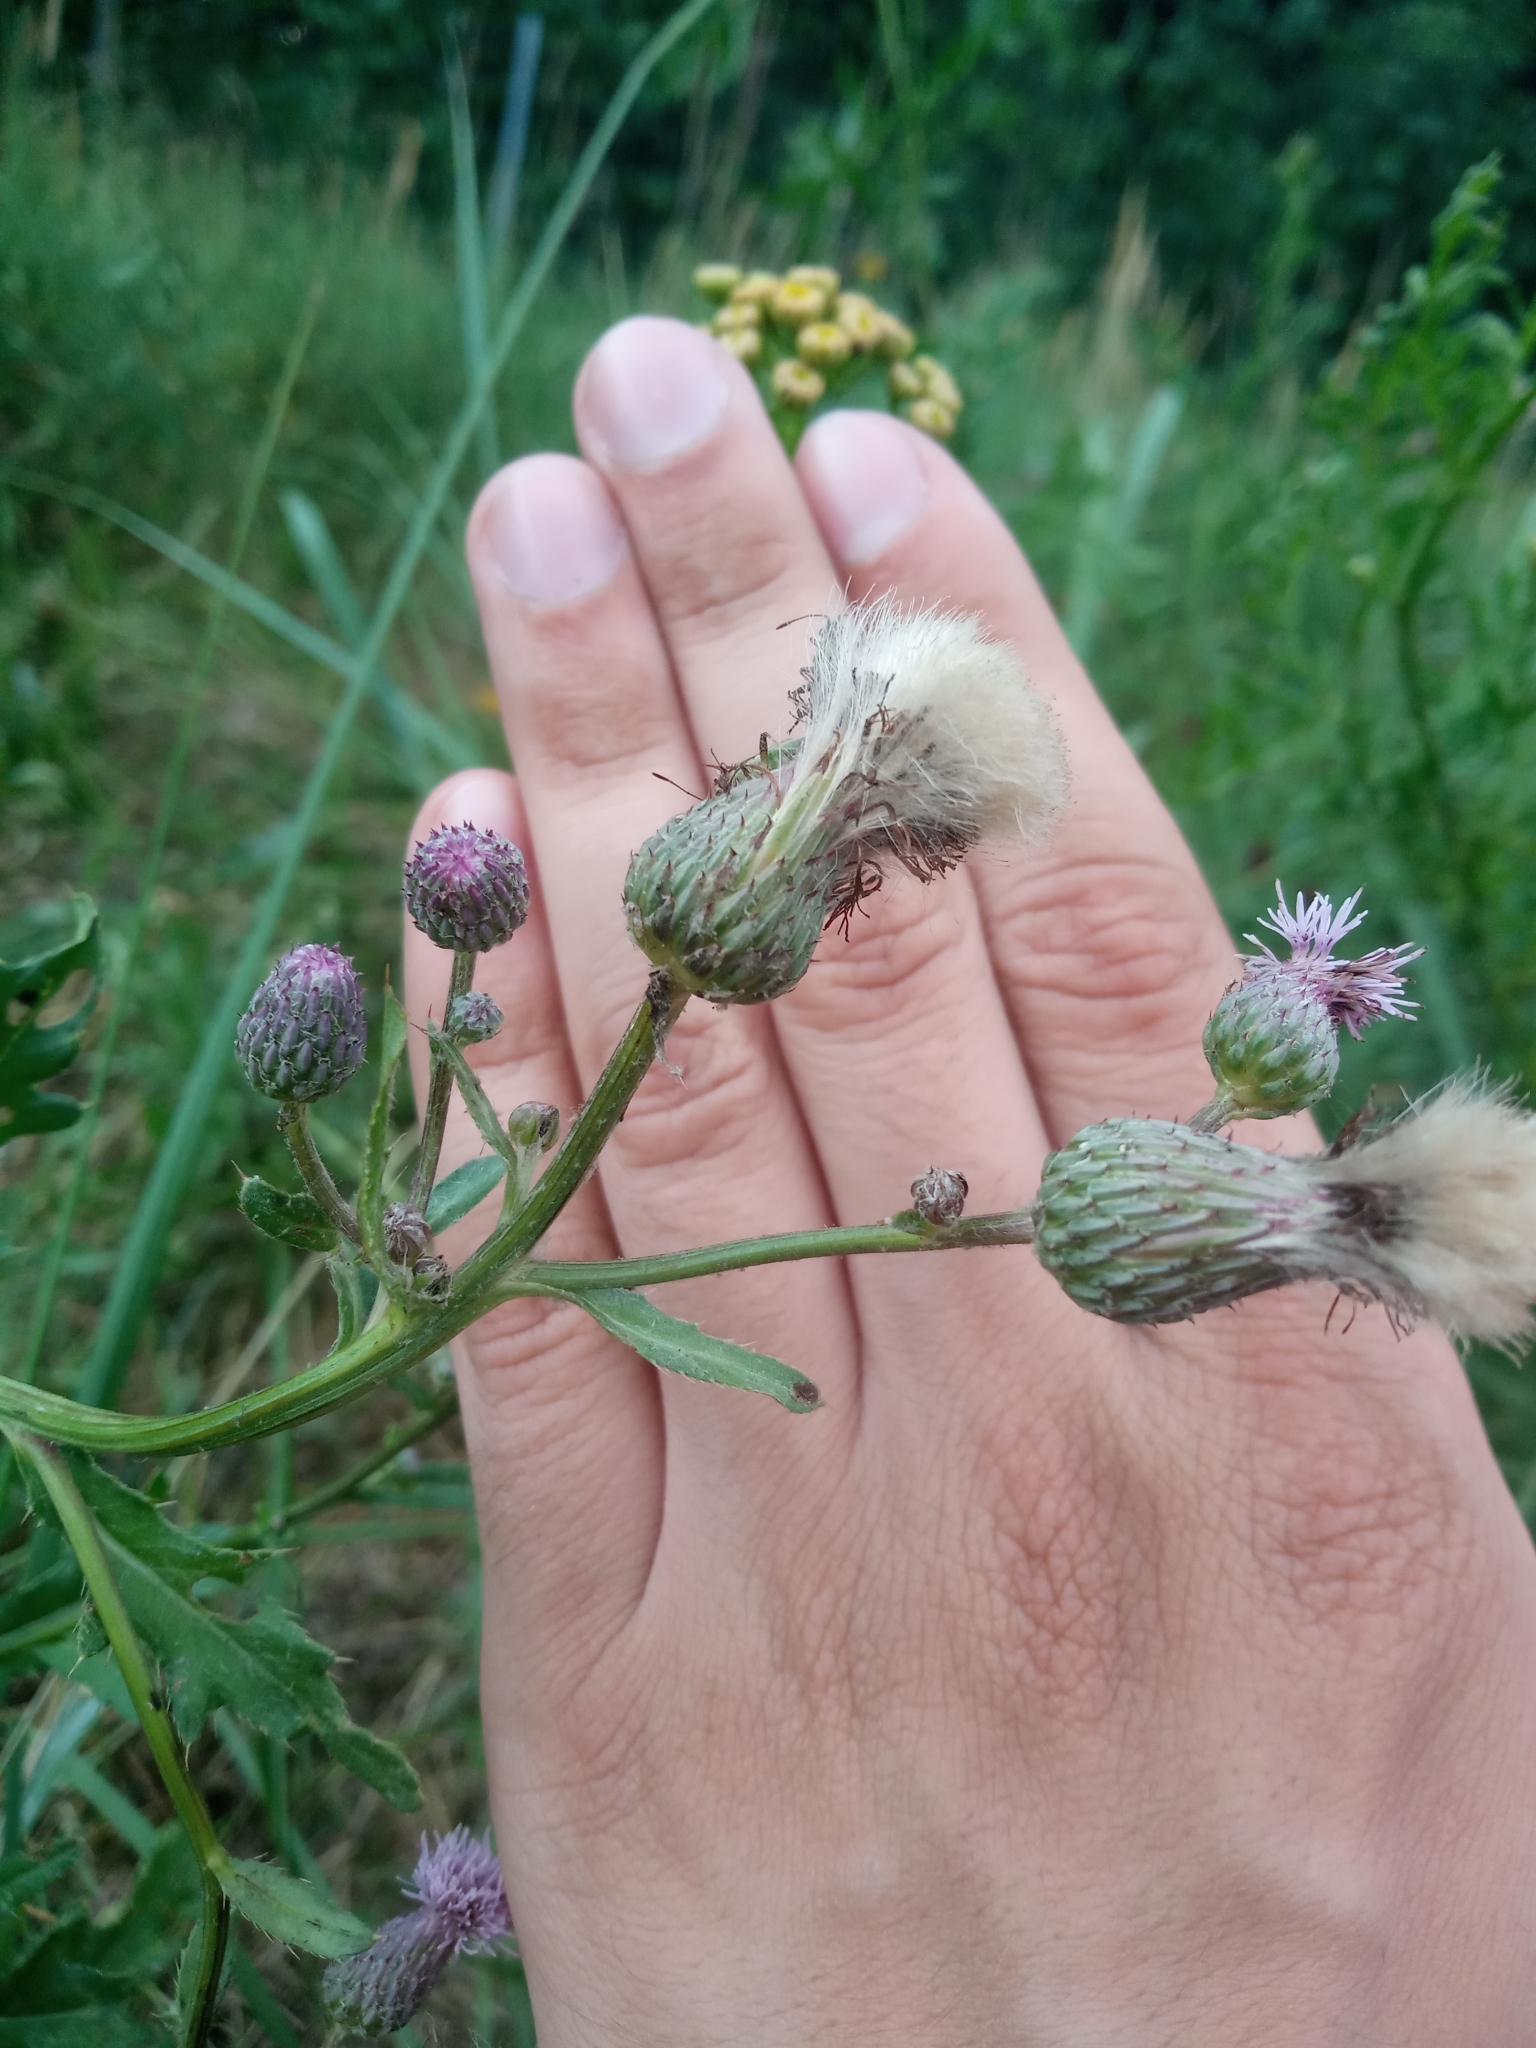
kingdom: Plantae
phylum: Tracheophyta
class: Magnoliopsida
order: Asterales
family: Asteraceae
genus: Cirsium
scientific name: Cirsium arvense
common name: Creeping thistle
